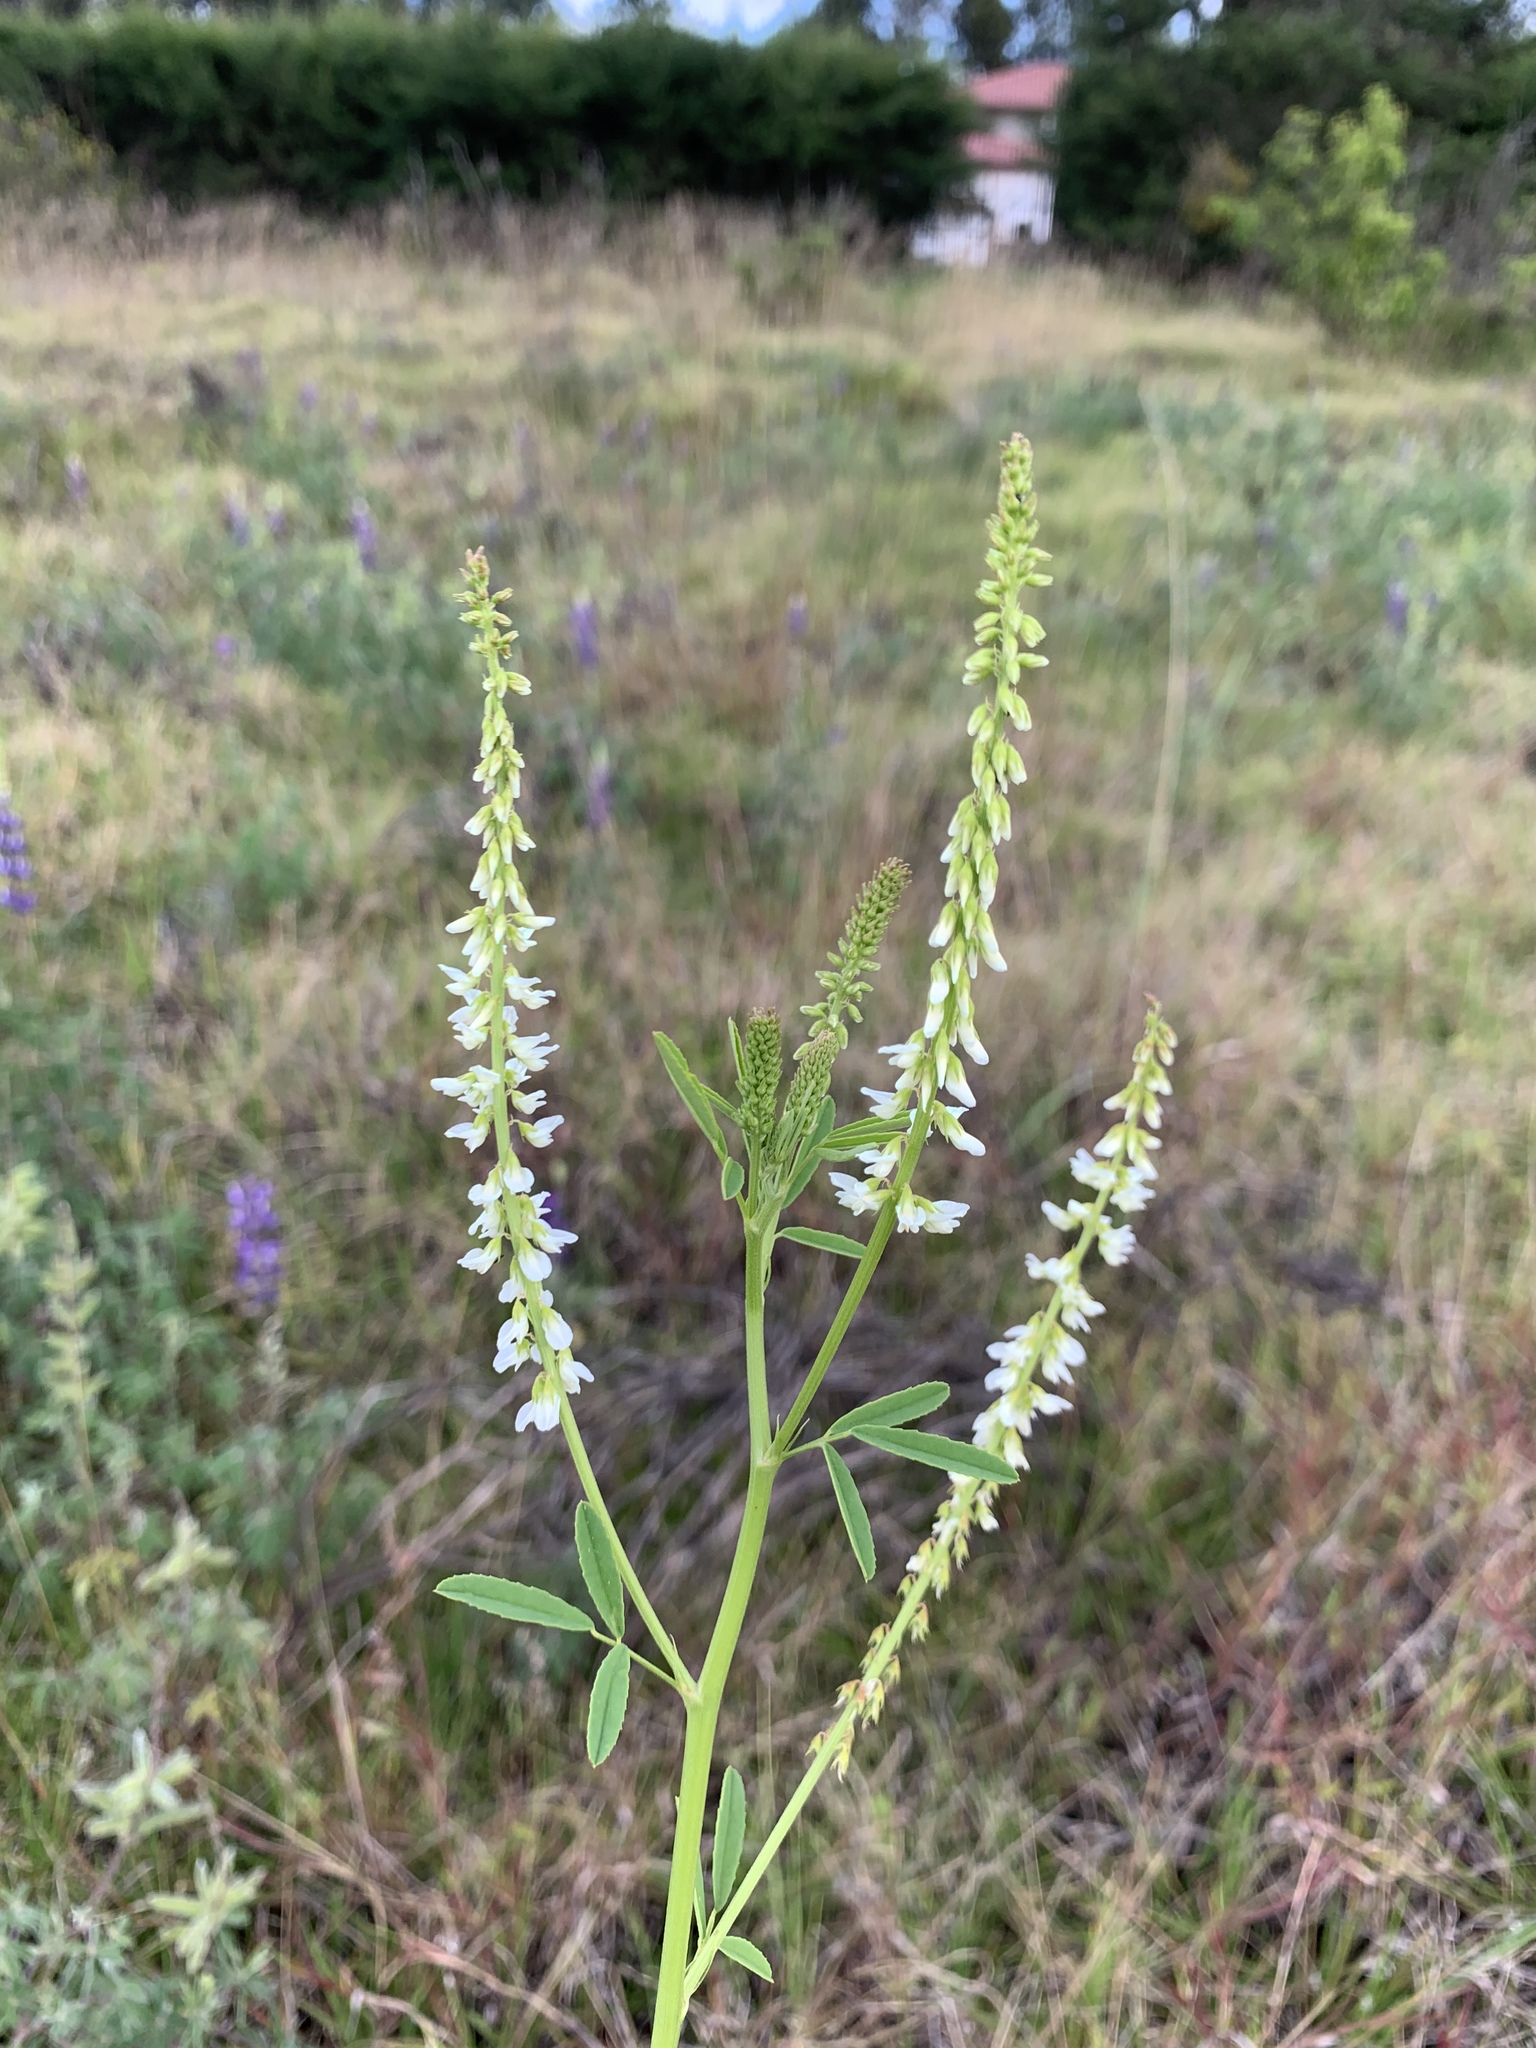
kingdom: Plantae
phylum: Tracheophyta
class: Magnoliopsida
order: Fabales
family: Fabaceae
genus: Melilotus
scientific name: Melilotus albus
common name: White melilot
